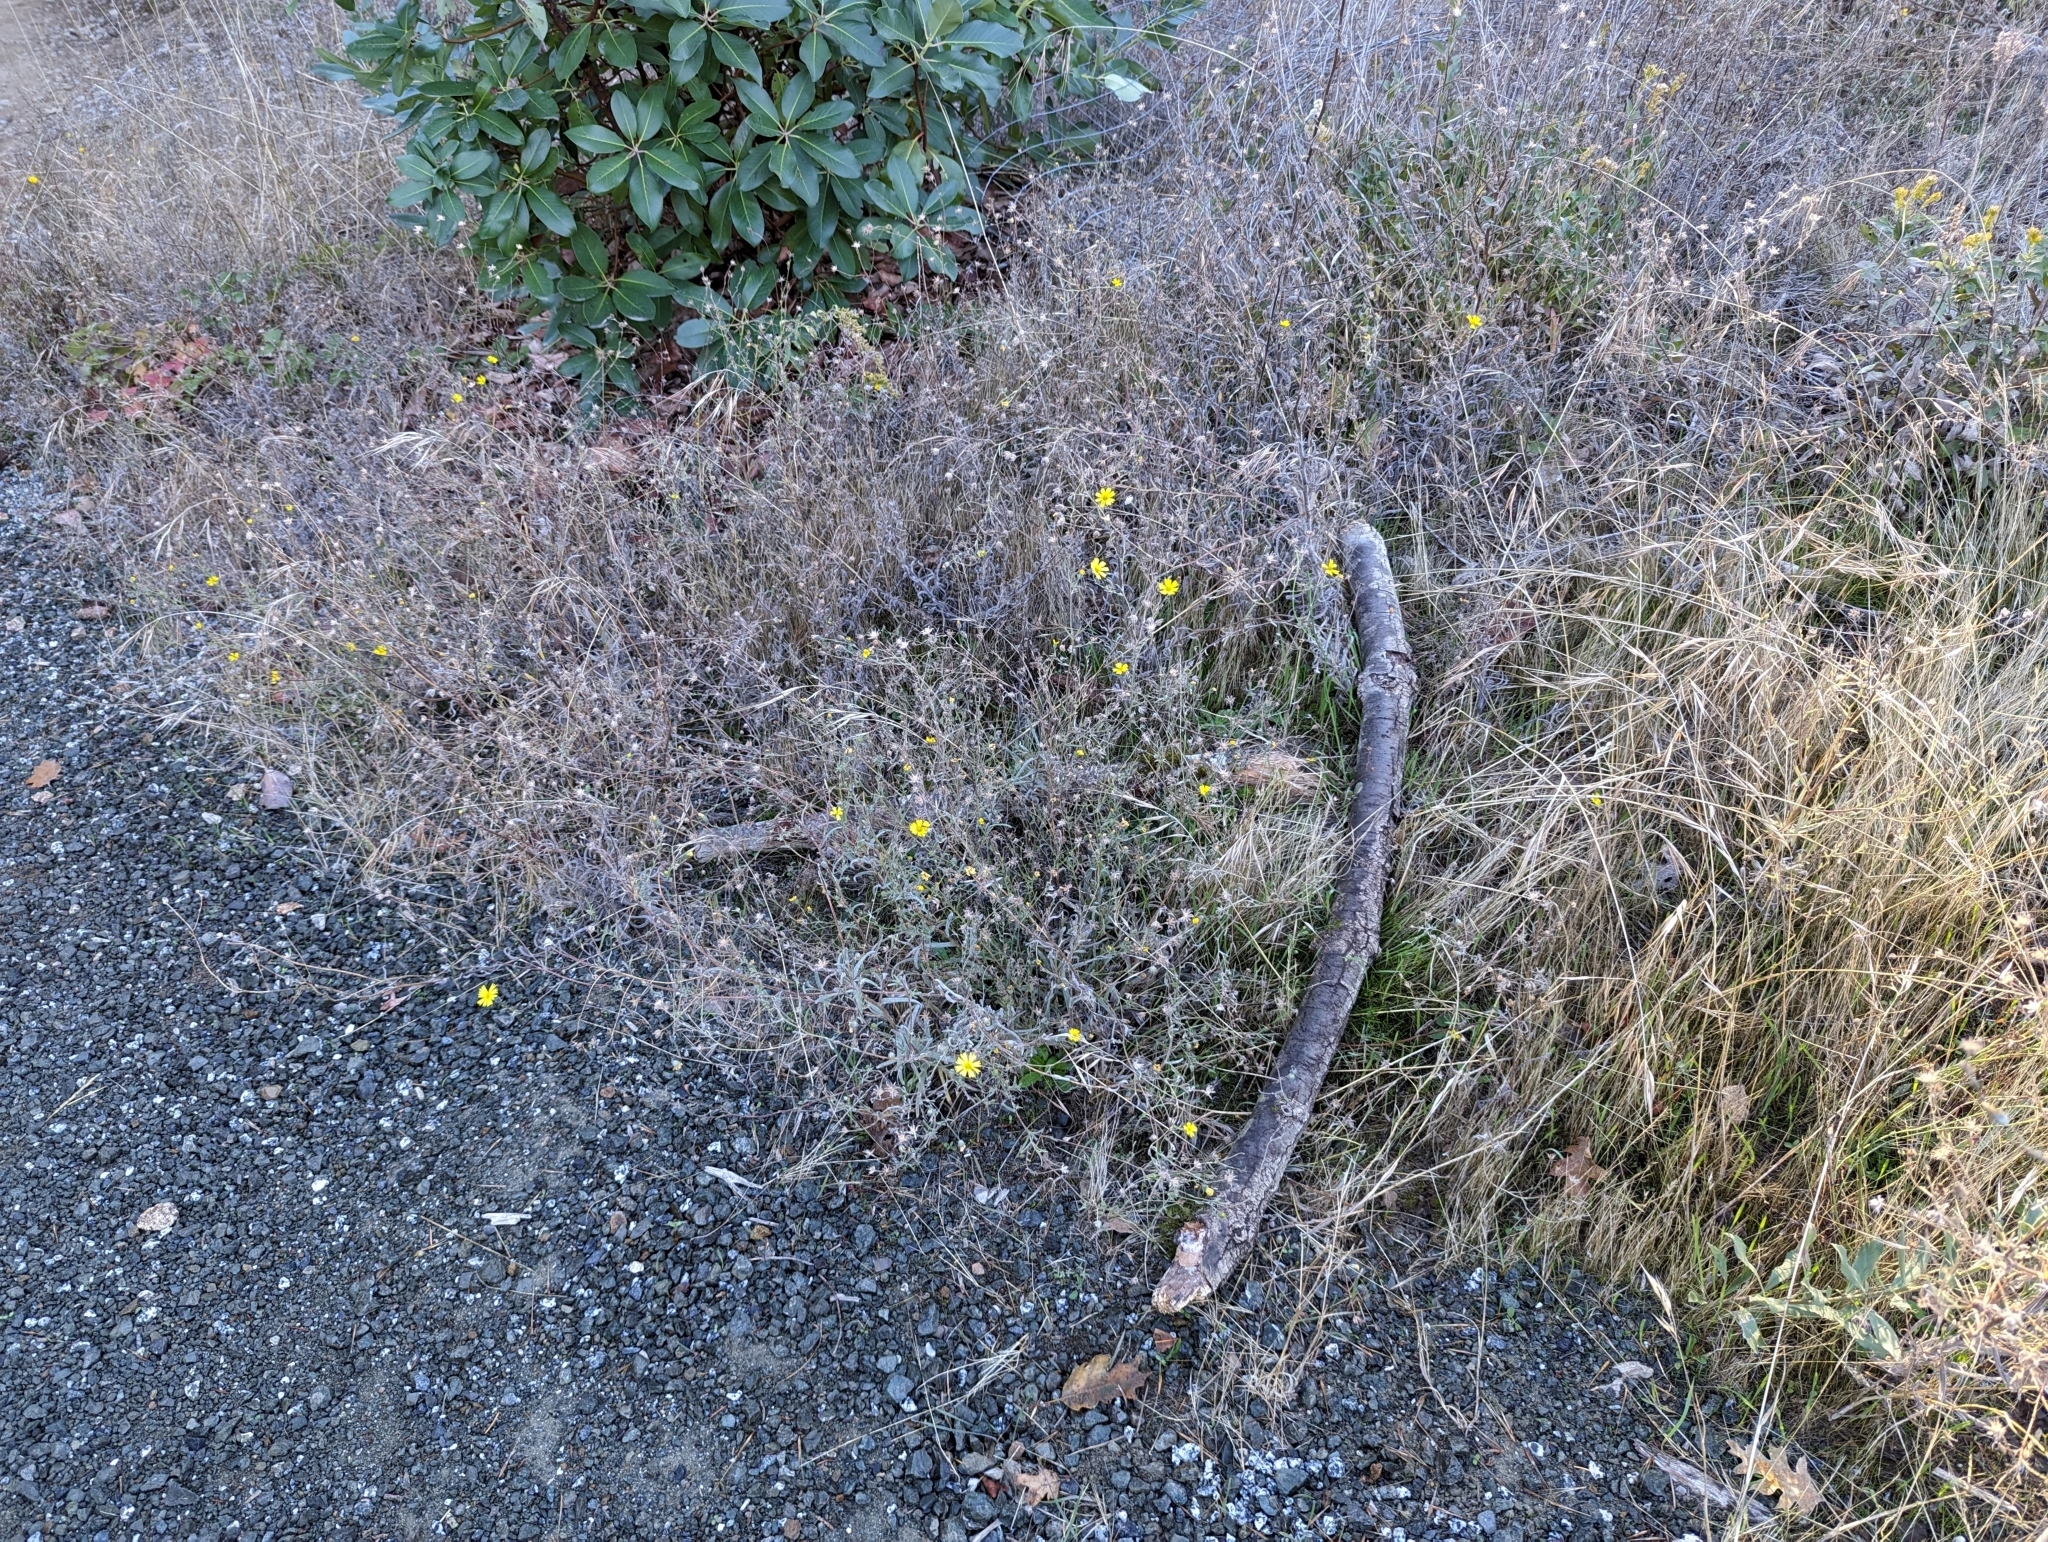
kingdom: Plantae
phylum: Tracheophyta
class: Magnoliopsida
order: Asterales
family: Asteraceae
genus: Madia
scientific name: Madia elegans
